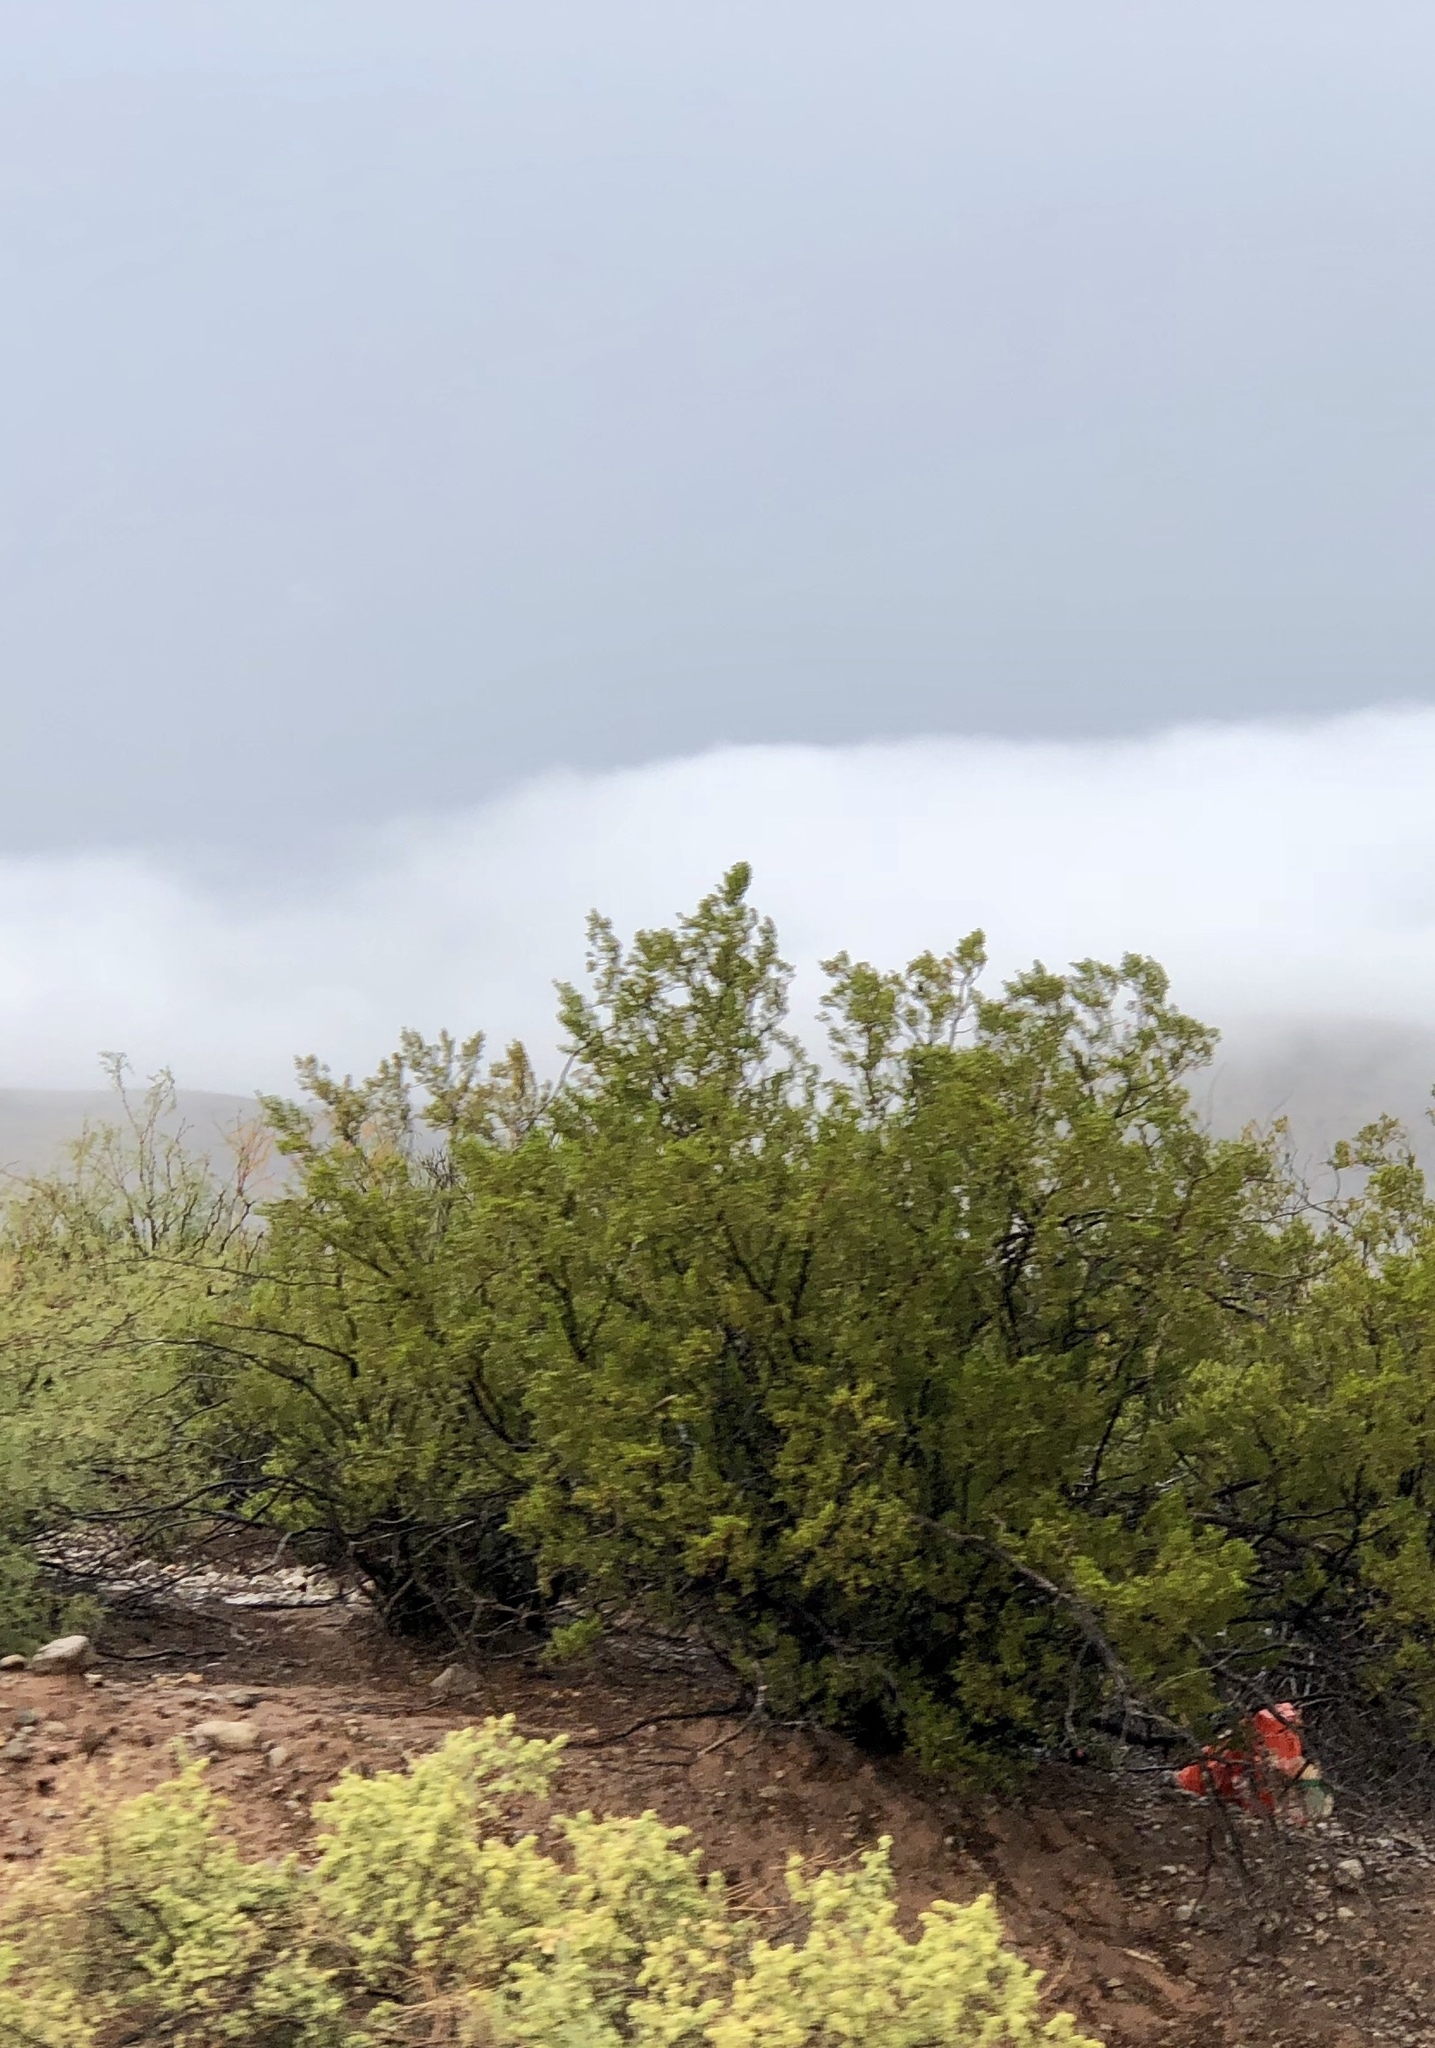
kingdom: Plantae
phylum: Tracheophyta
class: Magnoliopsida
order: Zygophyllales
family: Zygophyllaceae
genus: Larrea
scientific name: Larrea tridentata
